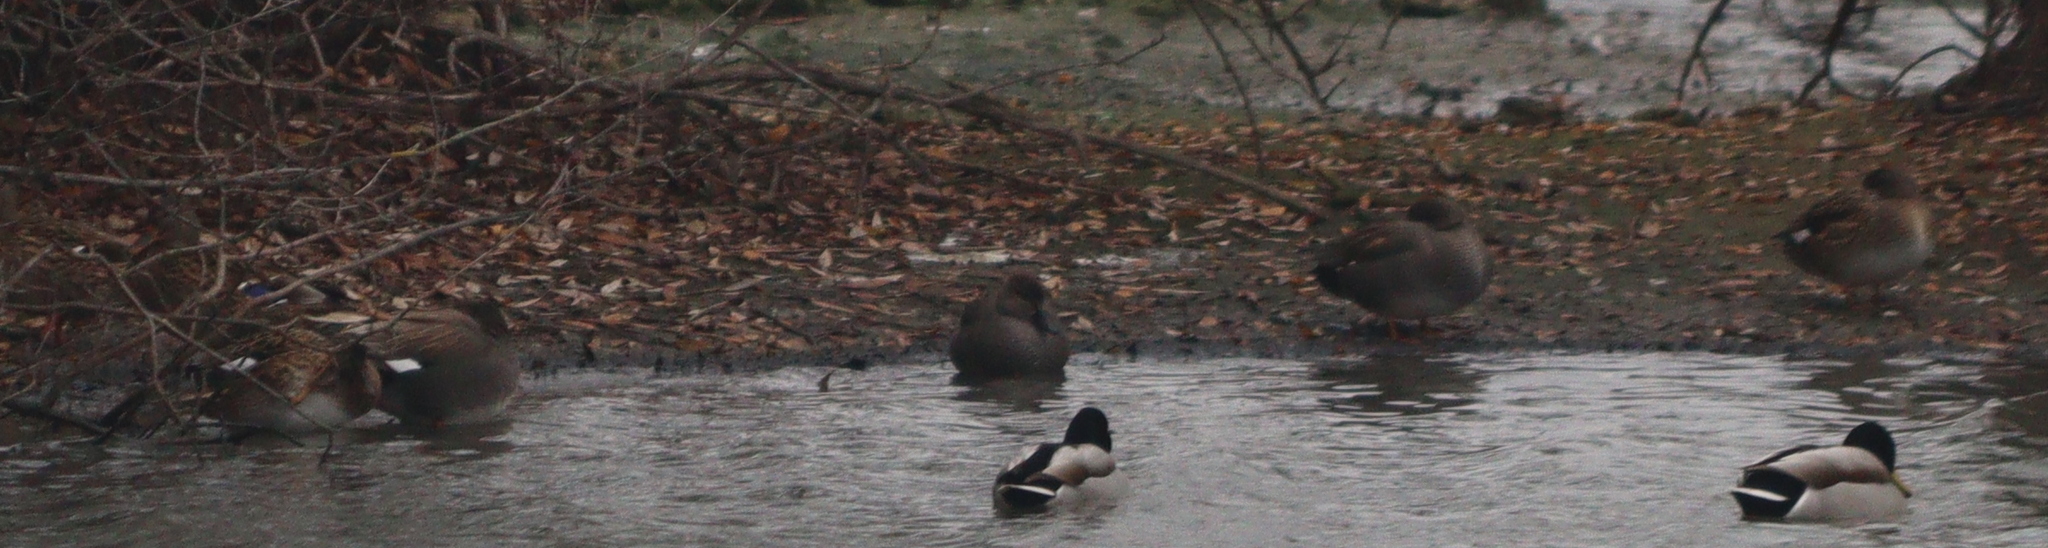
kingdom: Animalia
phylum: Chordata
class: Aves
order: Anseriformes
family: Anatidae
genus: Mareca
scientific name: Mareca strepera
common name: Gadwall
